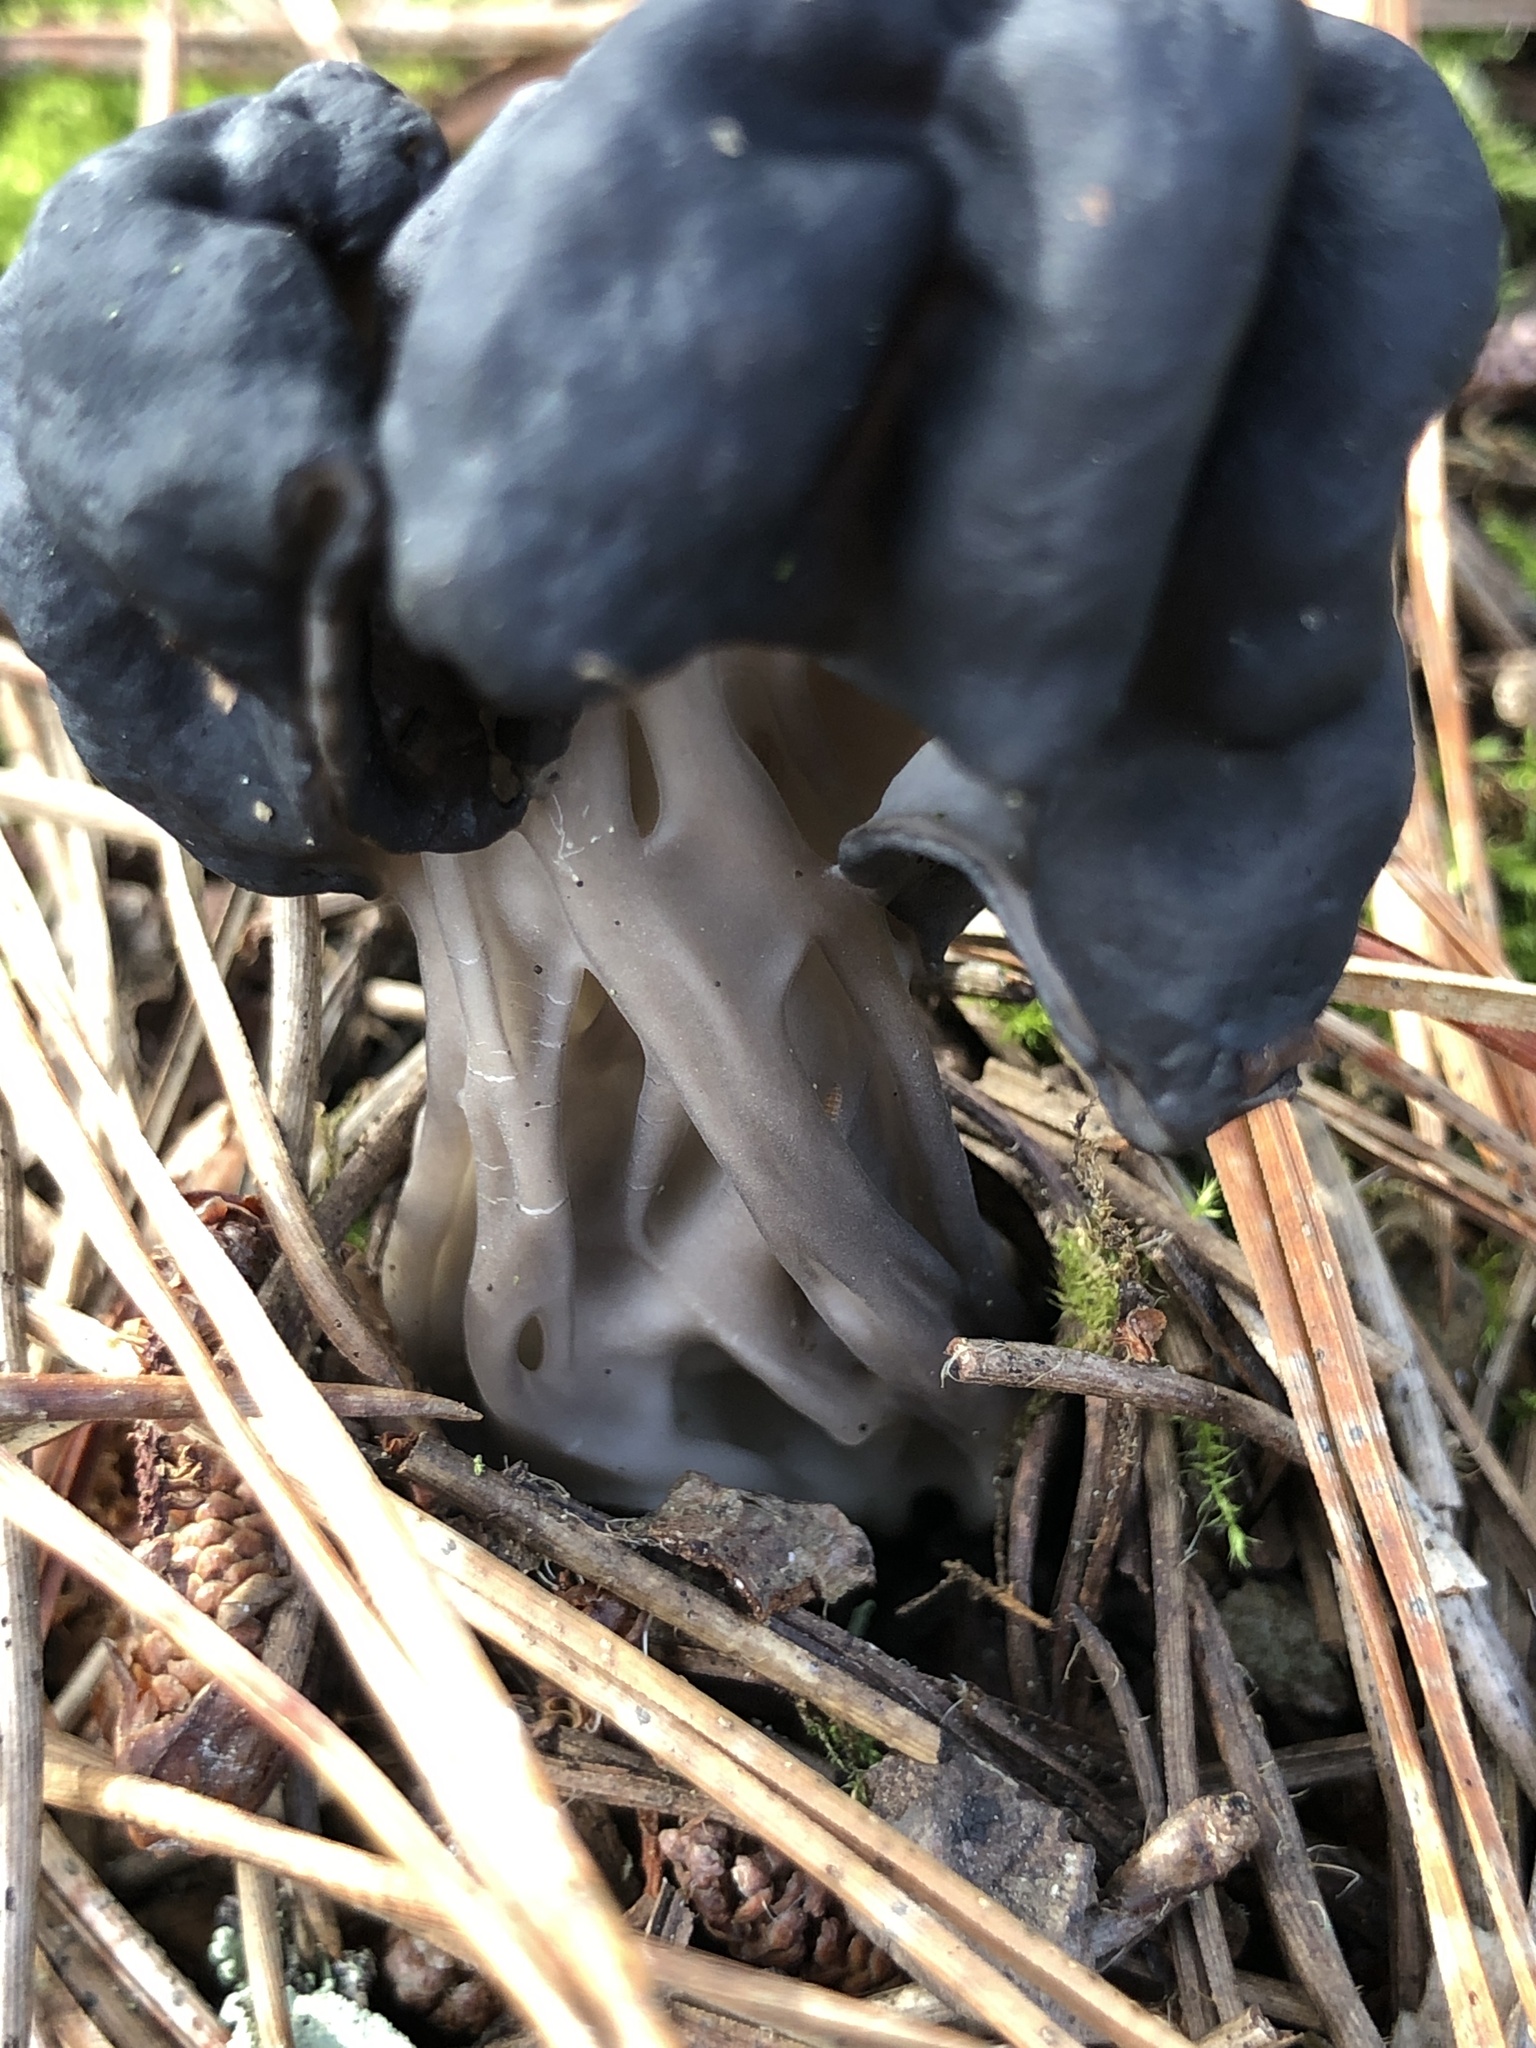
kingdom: Fungi
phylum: Ascomycota
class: Pezizomycetes
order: Pezizales
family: Helvellaceae
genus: Helvella
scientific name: Helvella vespertina
